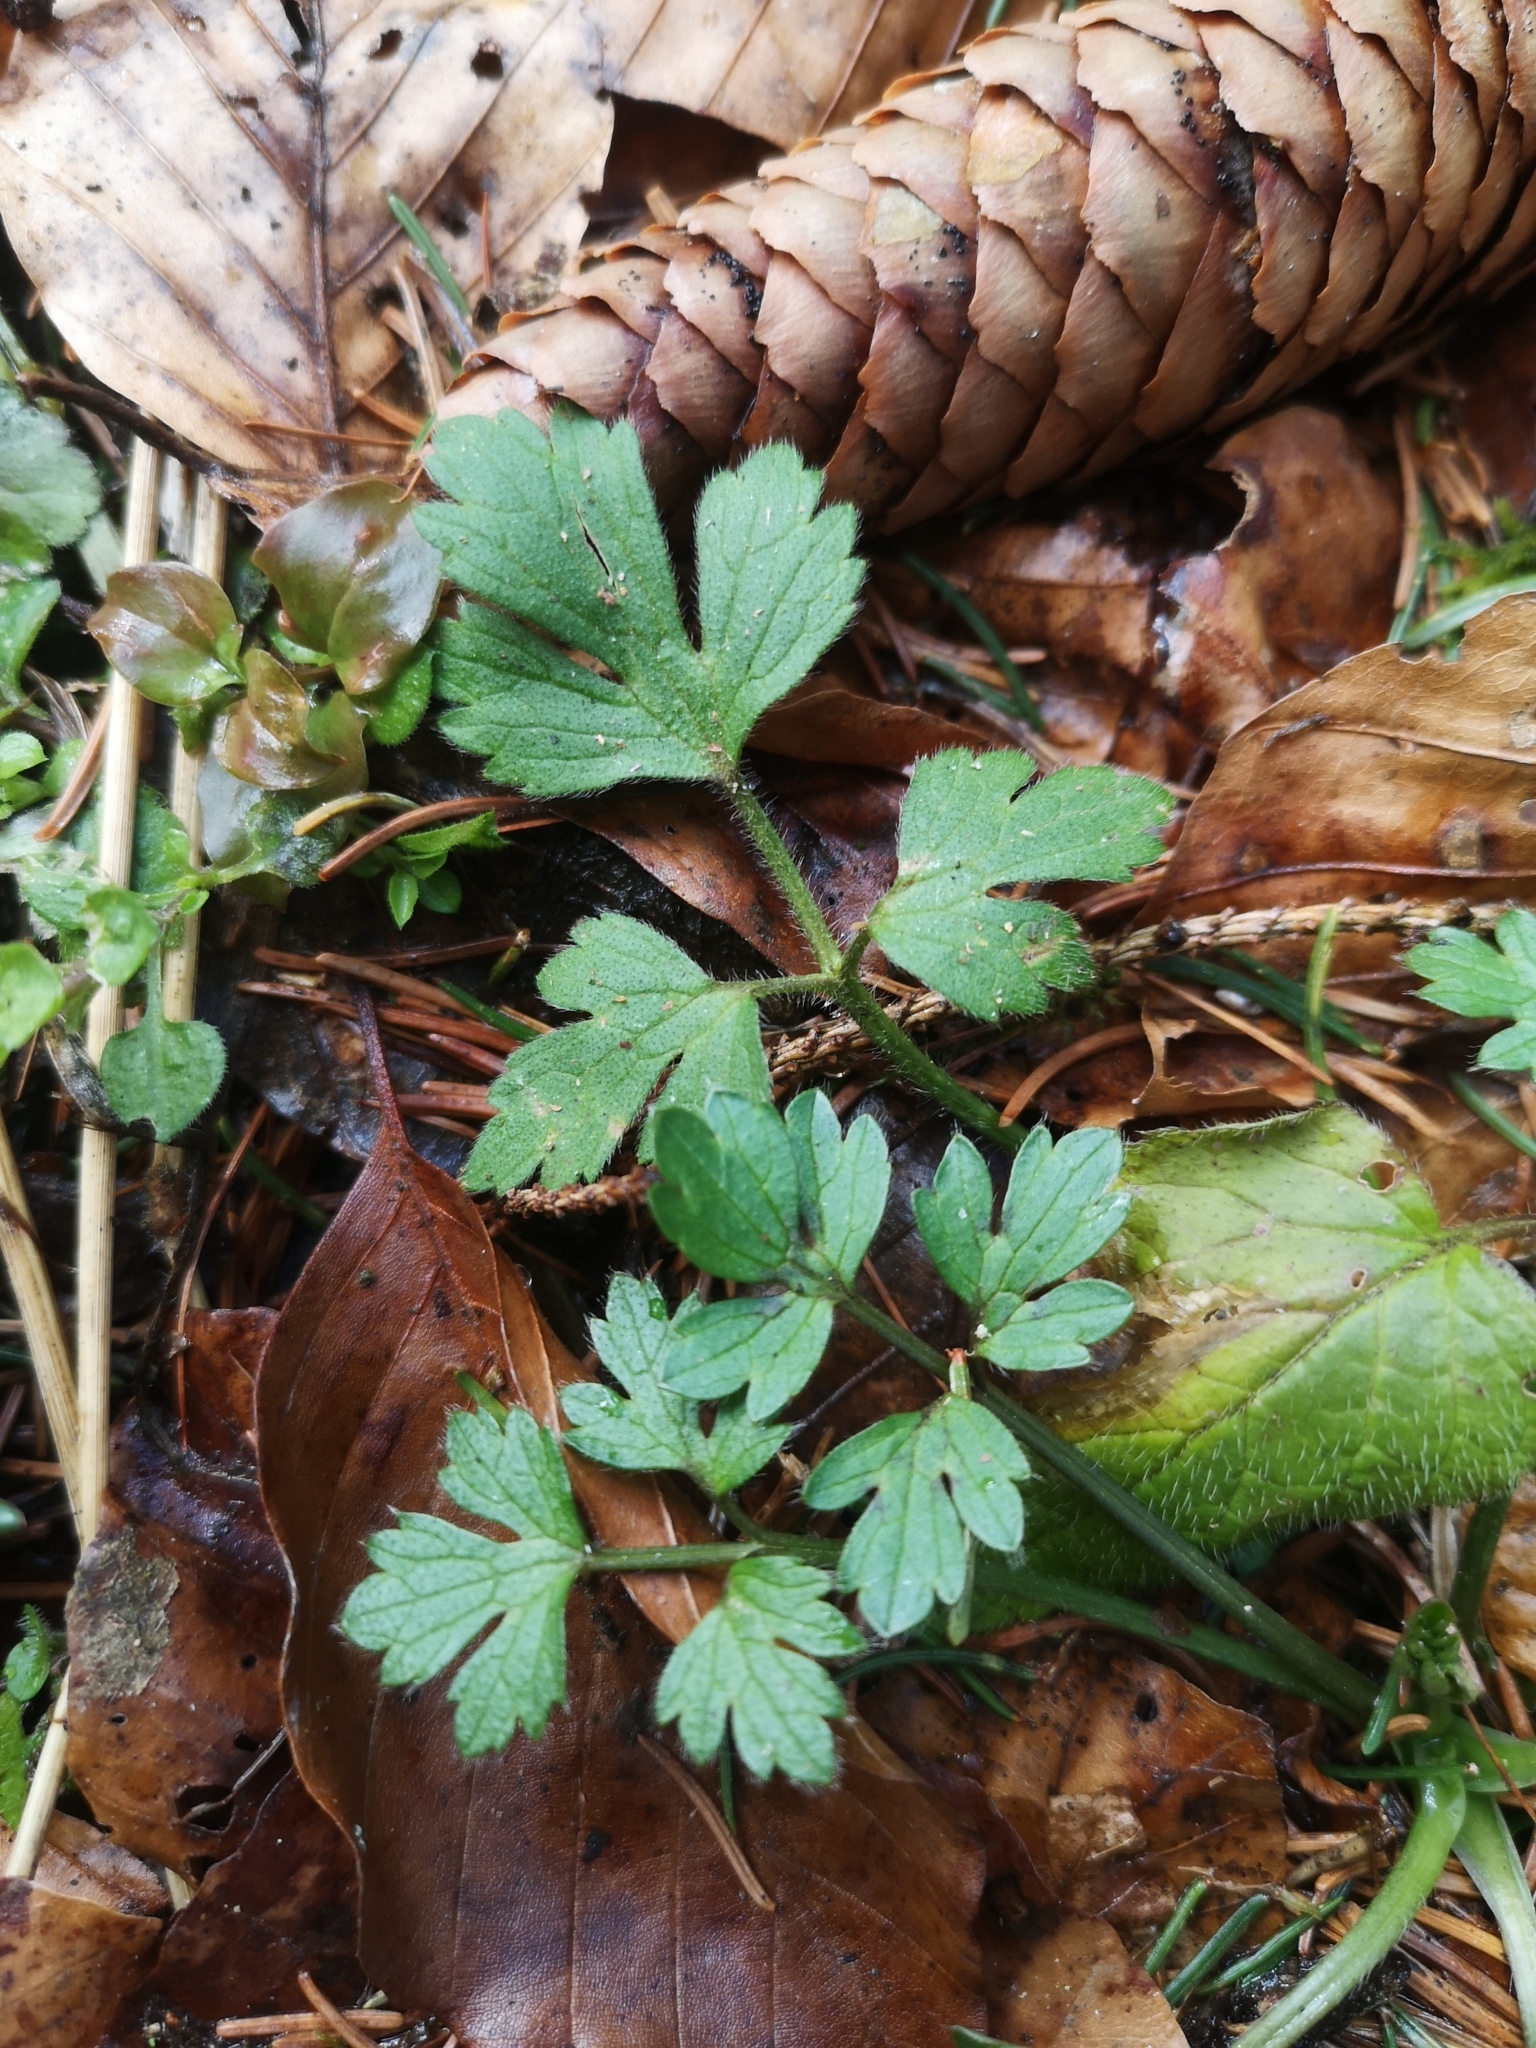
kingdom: Plantae
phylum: Tracheophyta
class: Magnoliopsida
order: Ranunculales
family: Ranunculaceae
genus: Ranunculus
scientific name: Ranunculus repens
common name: Creeping buttercup
